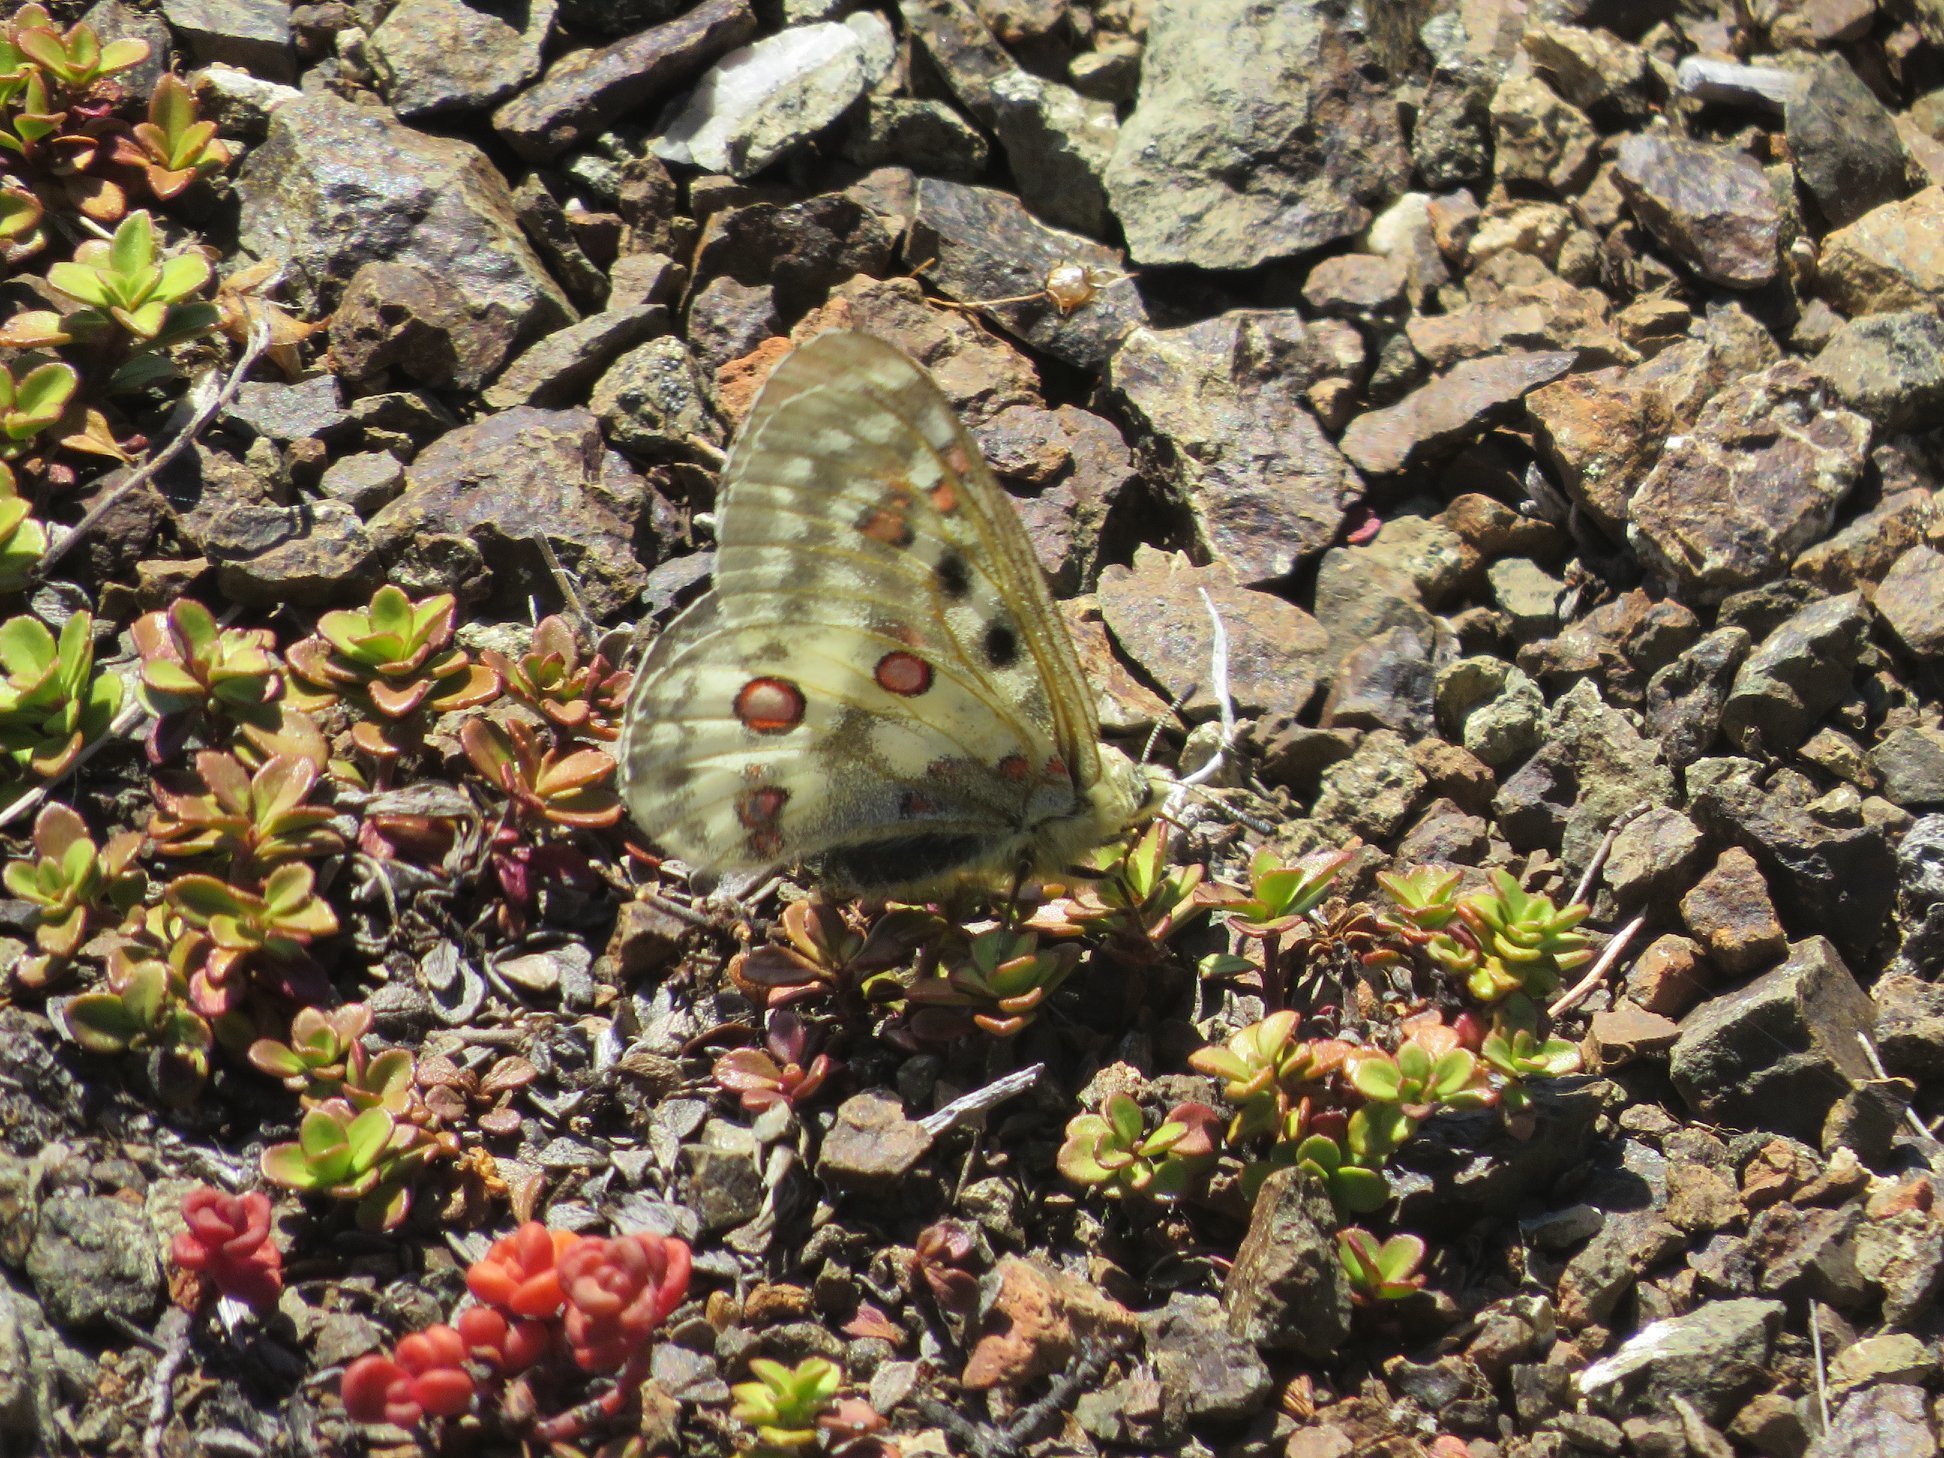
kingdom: Animalia
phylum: Arthropoda
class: Insecta
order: Lepidoptera
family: Papilionidae
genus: Parnassius
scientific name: Parnassius smintheus
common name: Mountain parnassian
